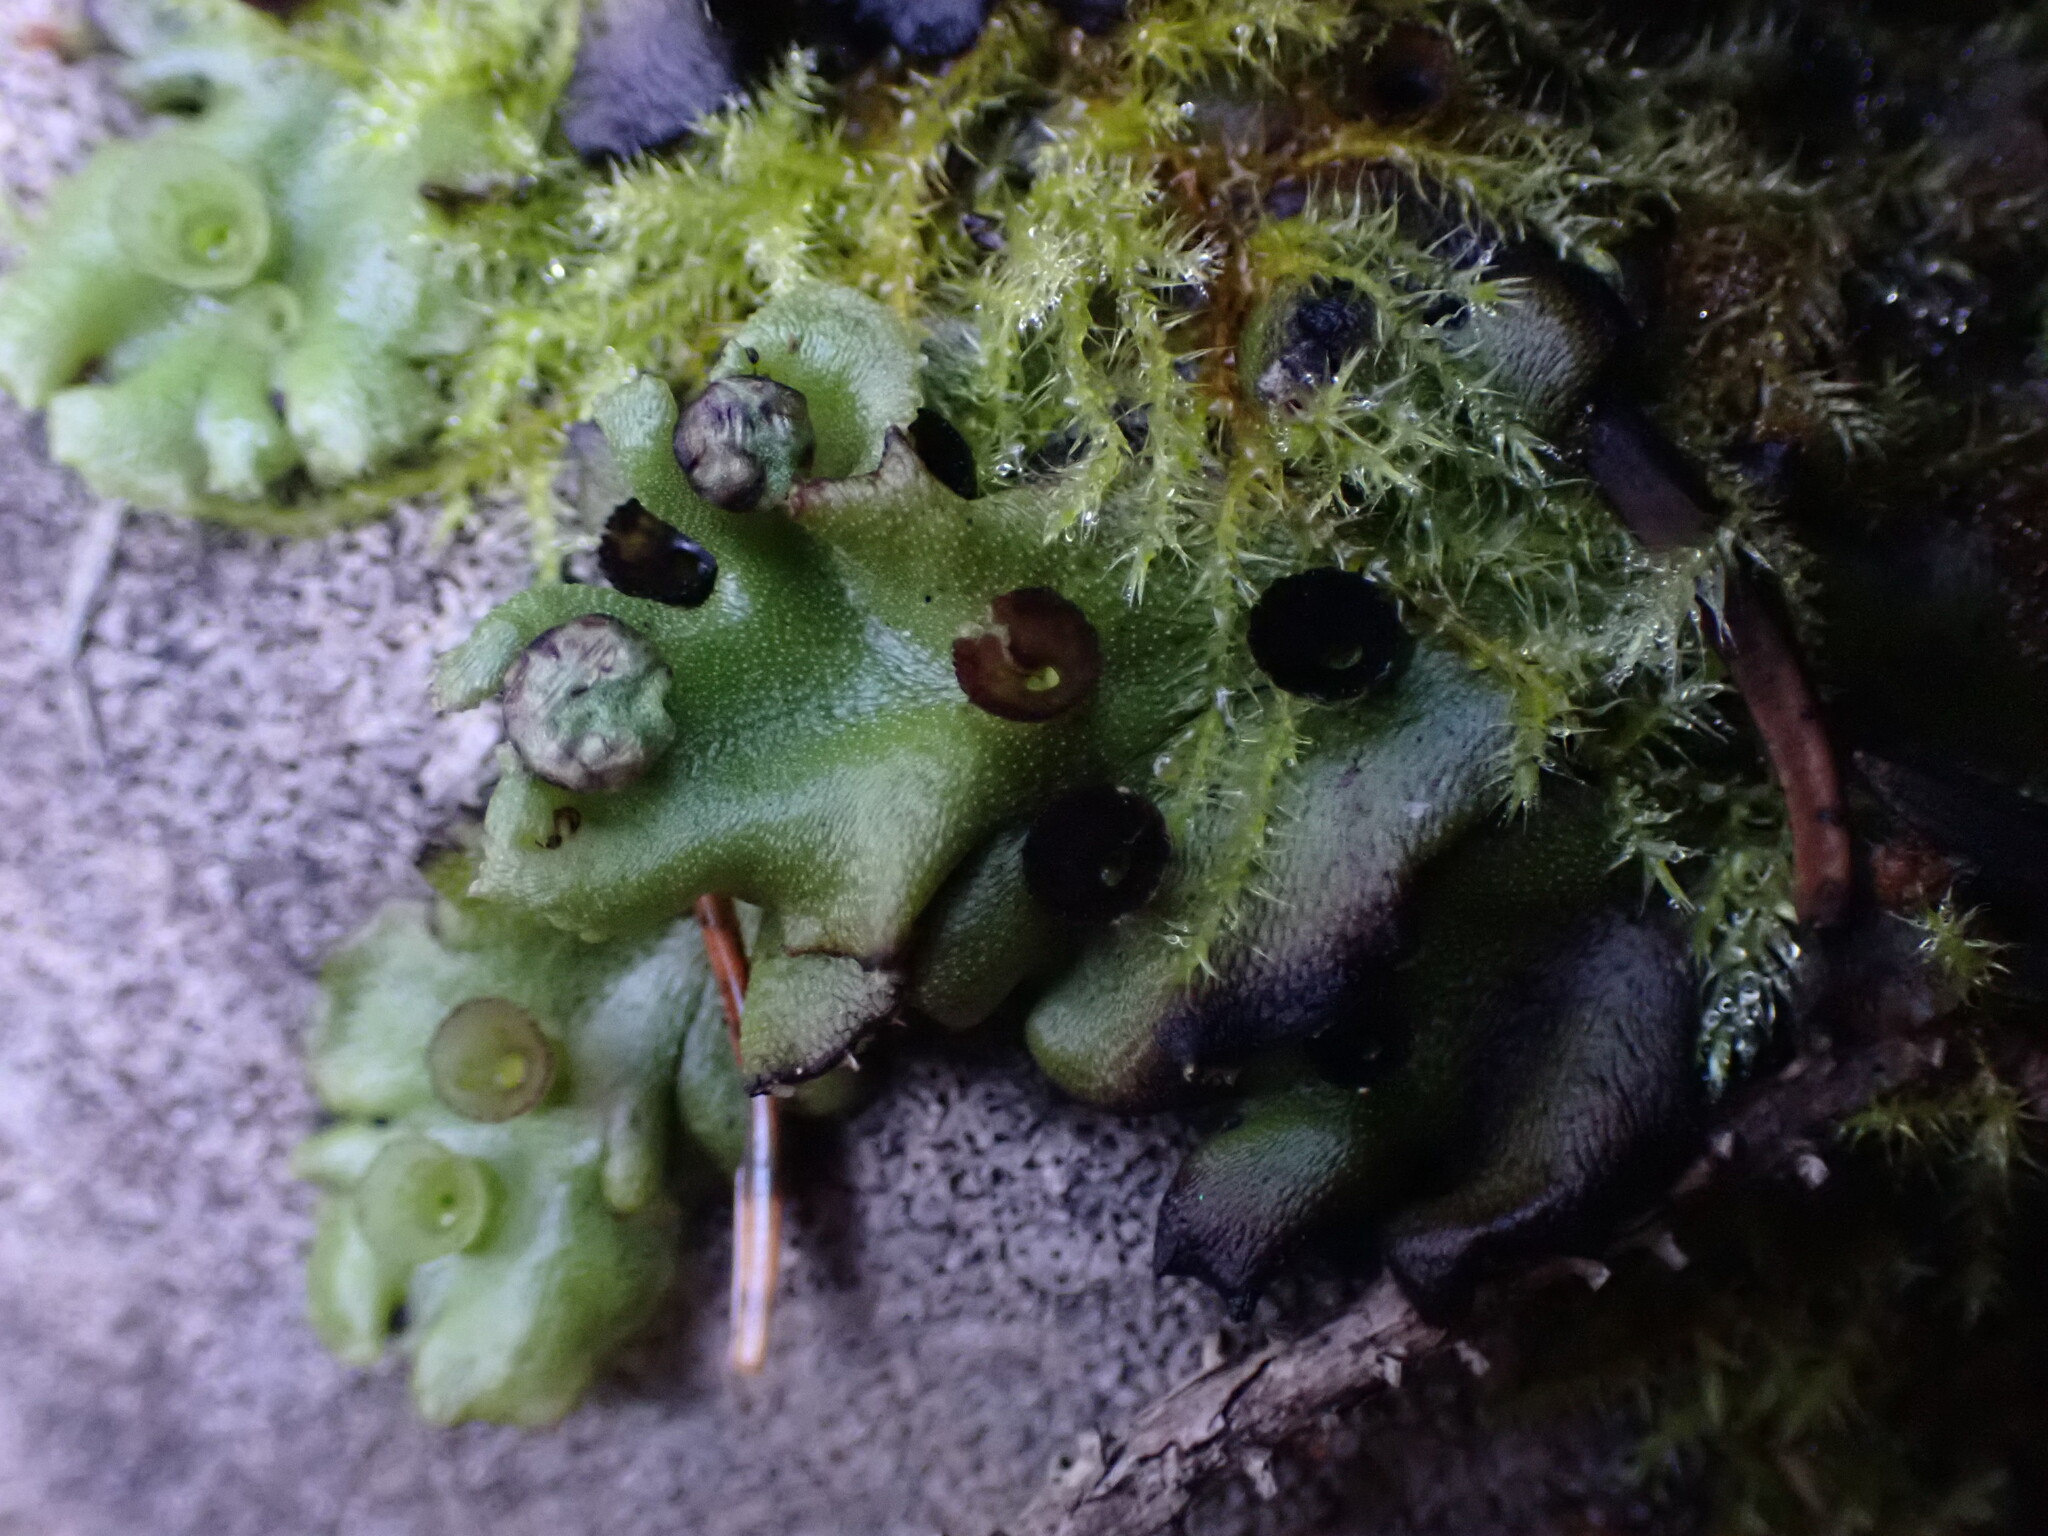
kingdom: Plantae
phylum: Marchantiophyta
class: Marchantiopsida
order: Marchantiales
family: Marchantiaceae
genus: Marchantia
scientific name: Marchantia polymorpha
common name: Common liverwort
